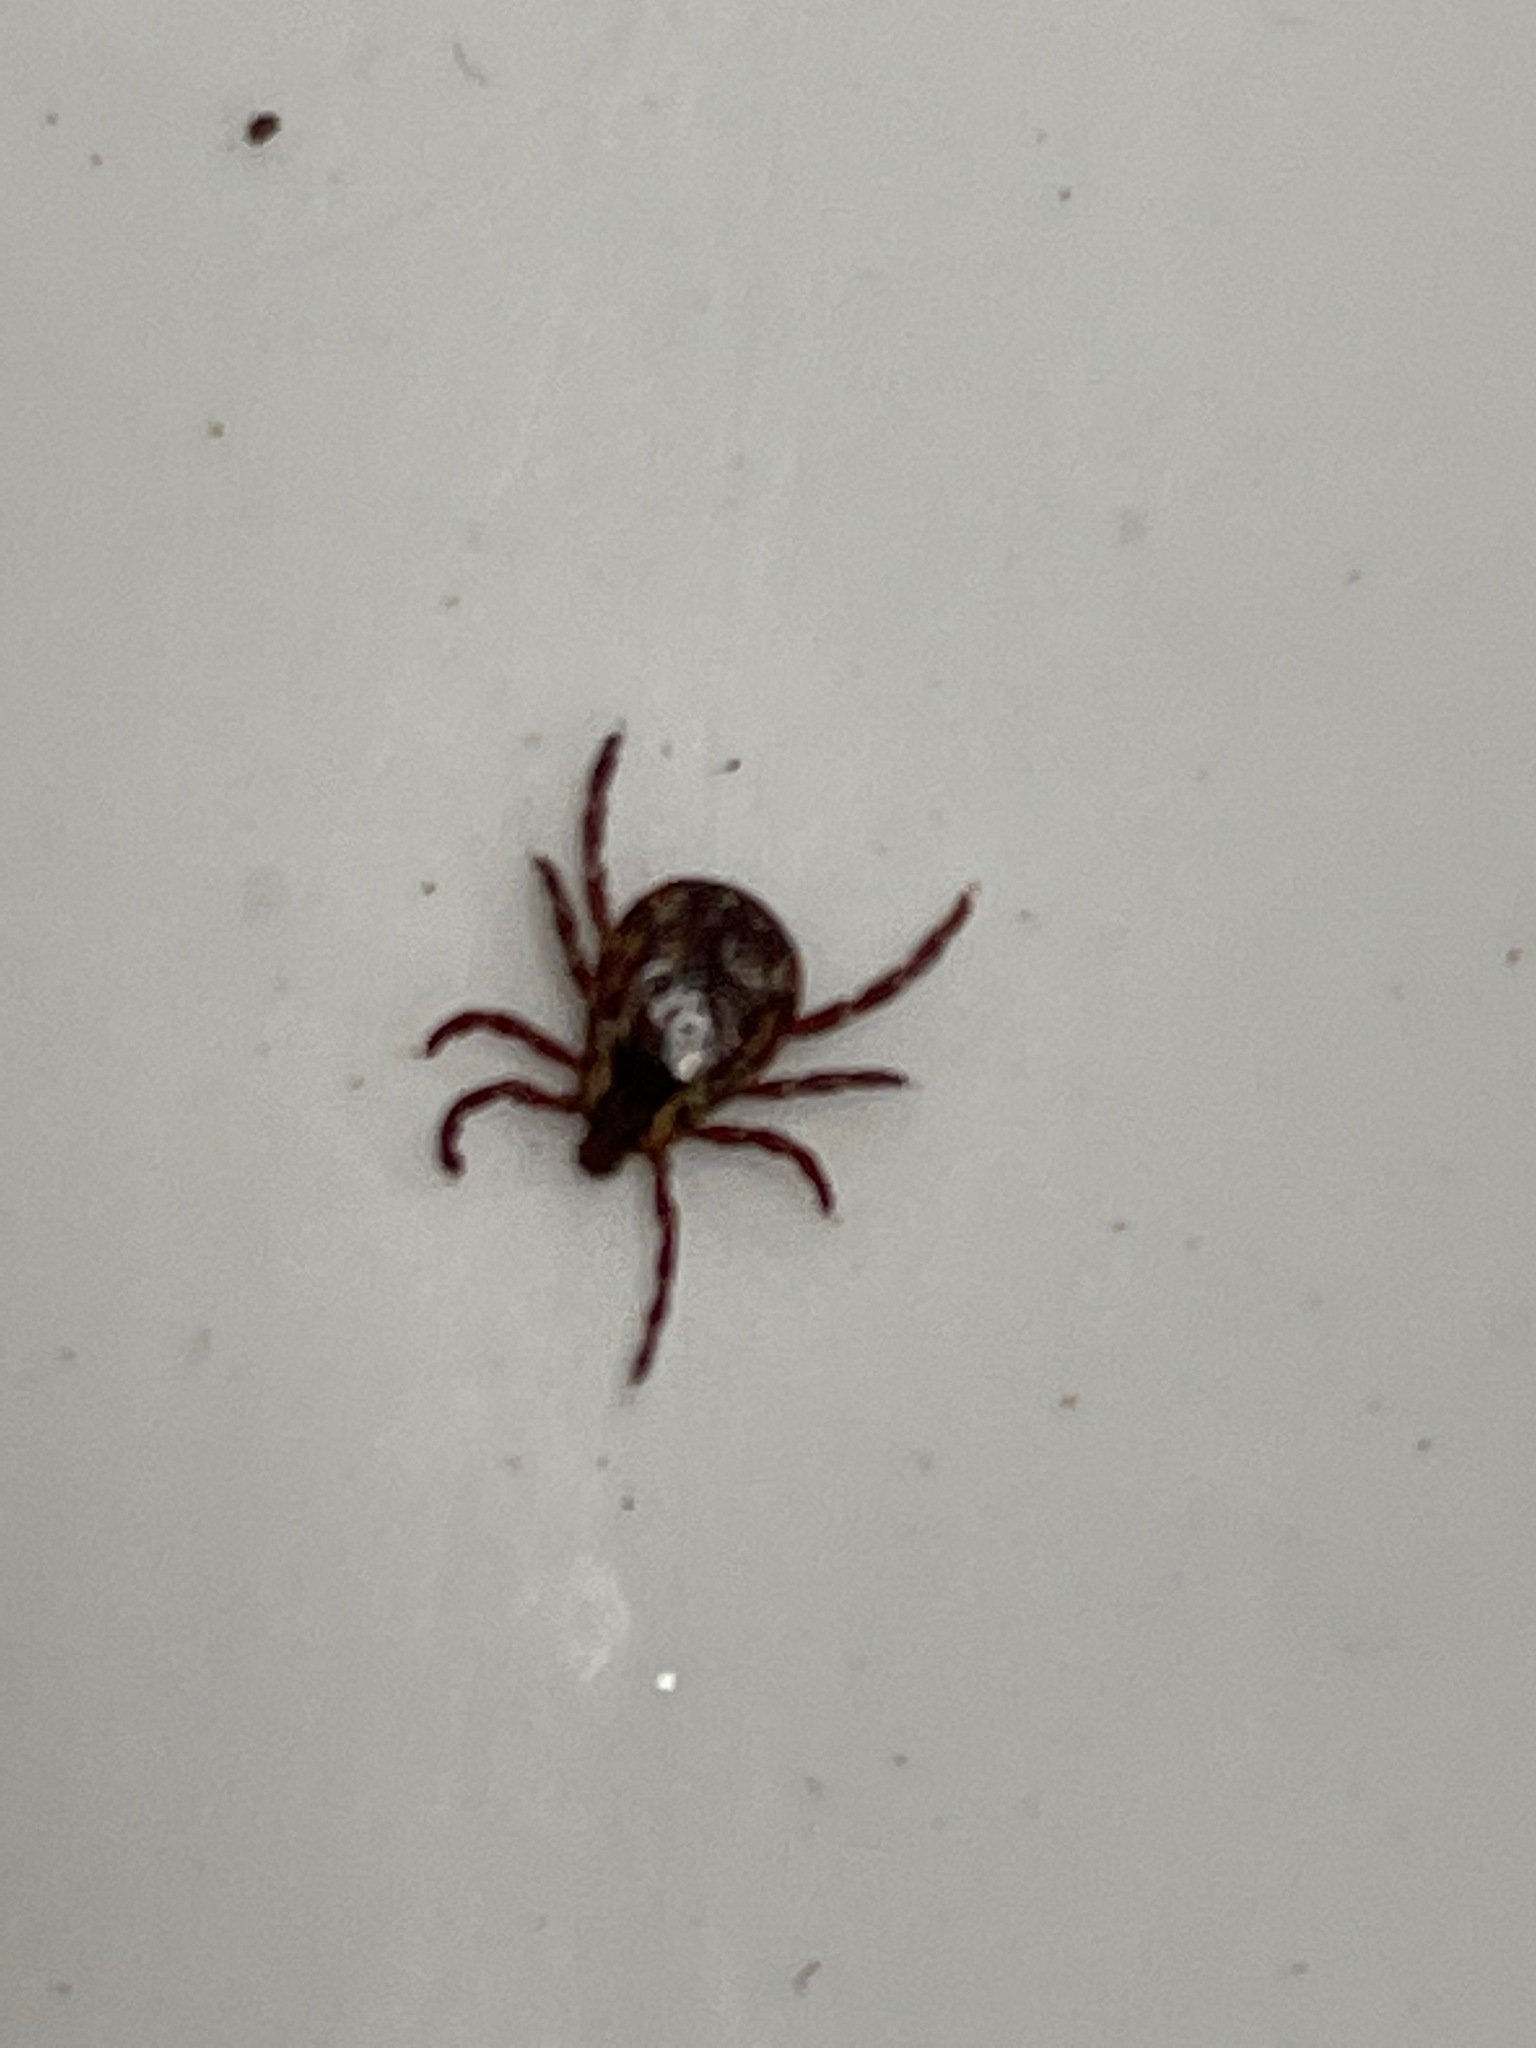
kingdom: Animalia
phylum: Arthropoda
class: Arachnida
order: Ixodida
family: Ixodidae
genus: Dermacentor
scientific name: Dermacentor variabilis
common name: American dog tick
